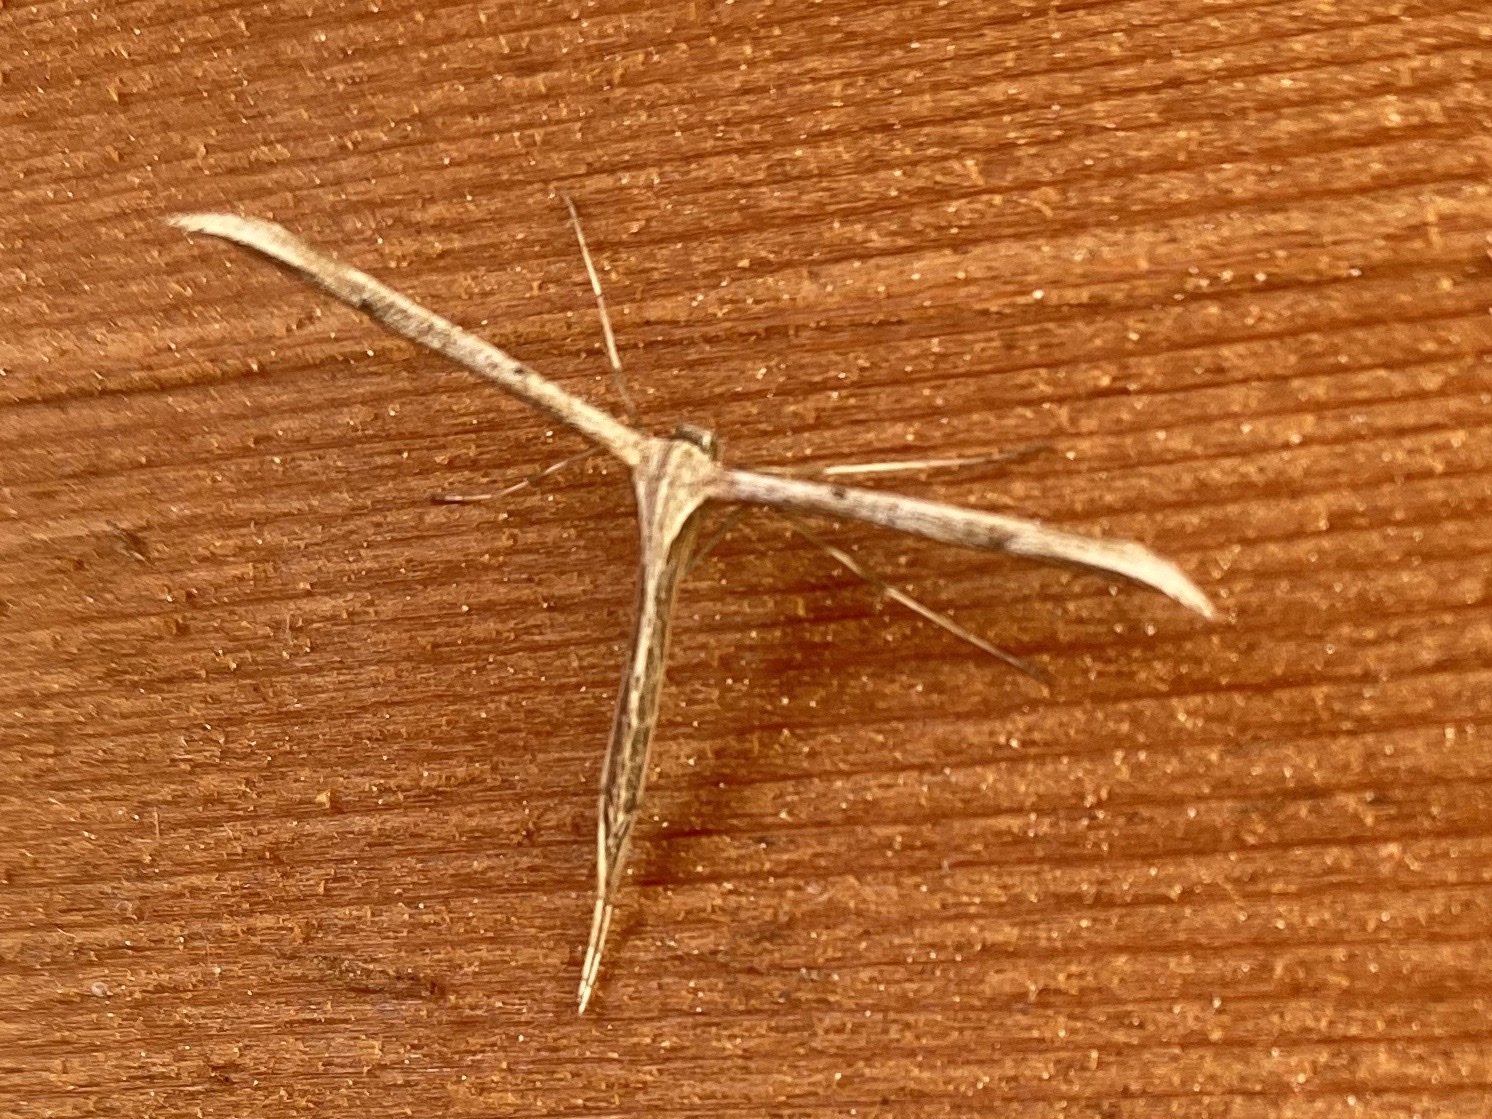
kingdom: Animalia
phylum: Arthropoda
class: Insecta
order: Lepidoptera
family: Pterophoridae
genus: Emmelina
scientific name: Emmelina monodactyla
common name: Common plume
